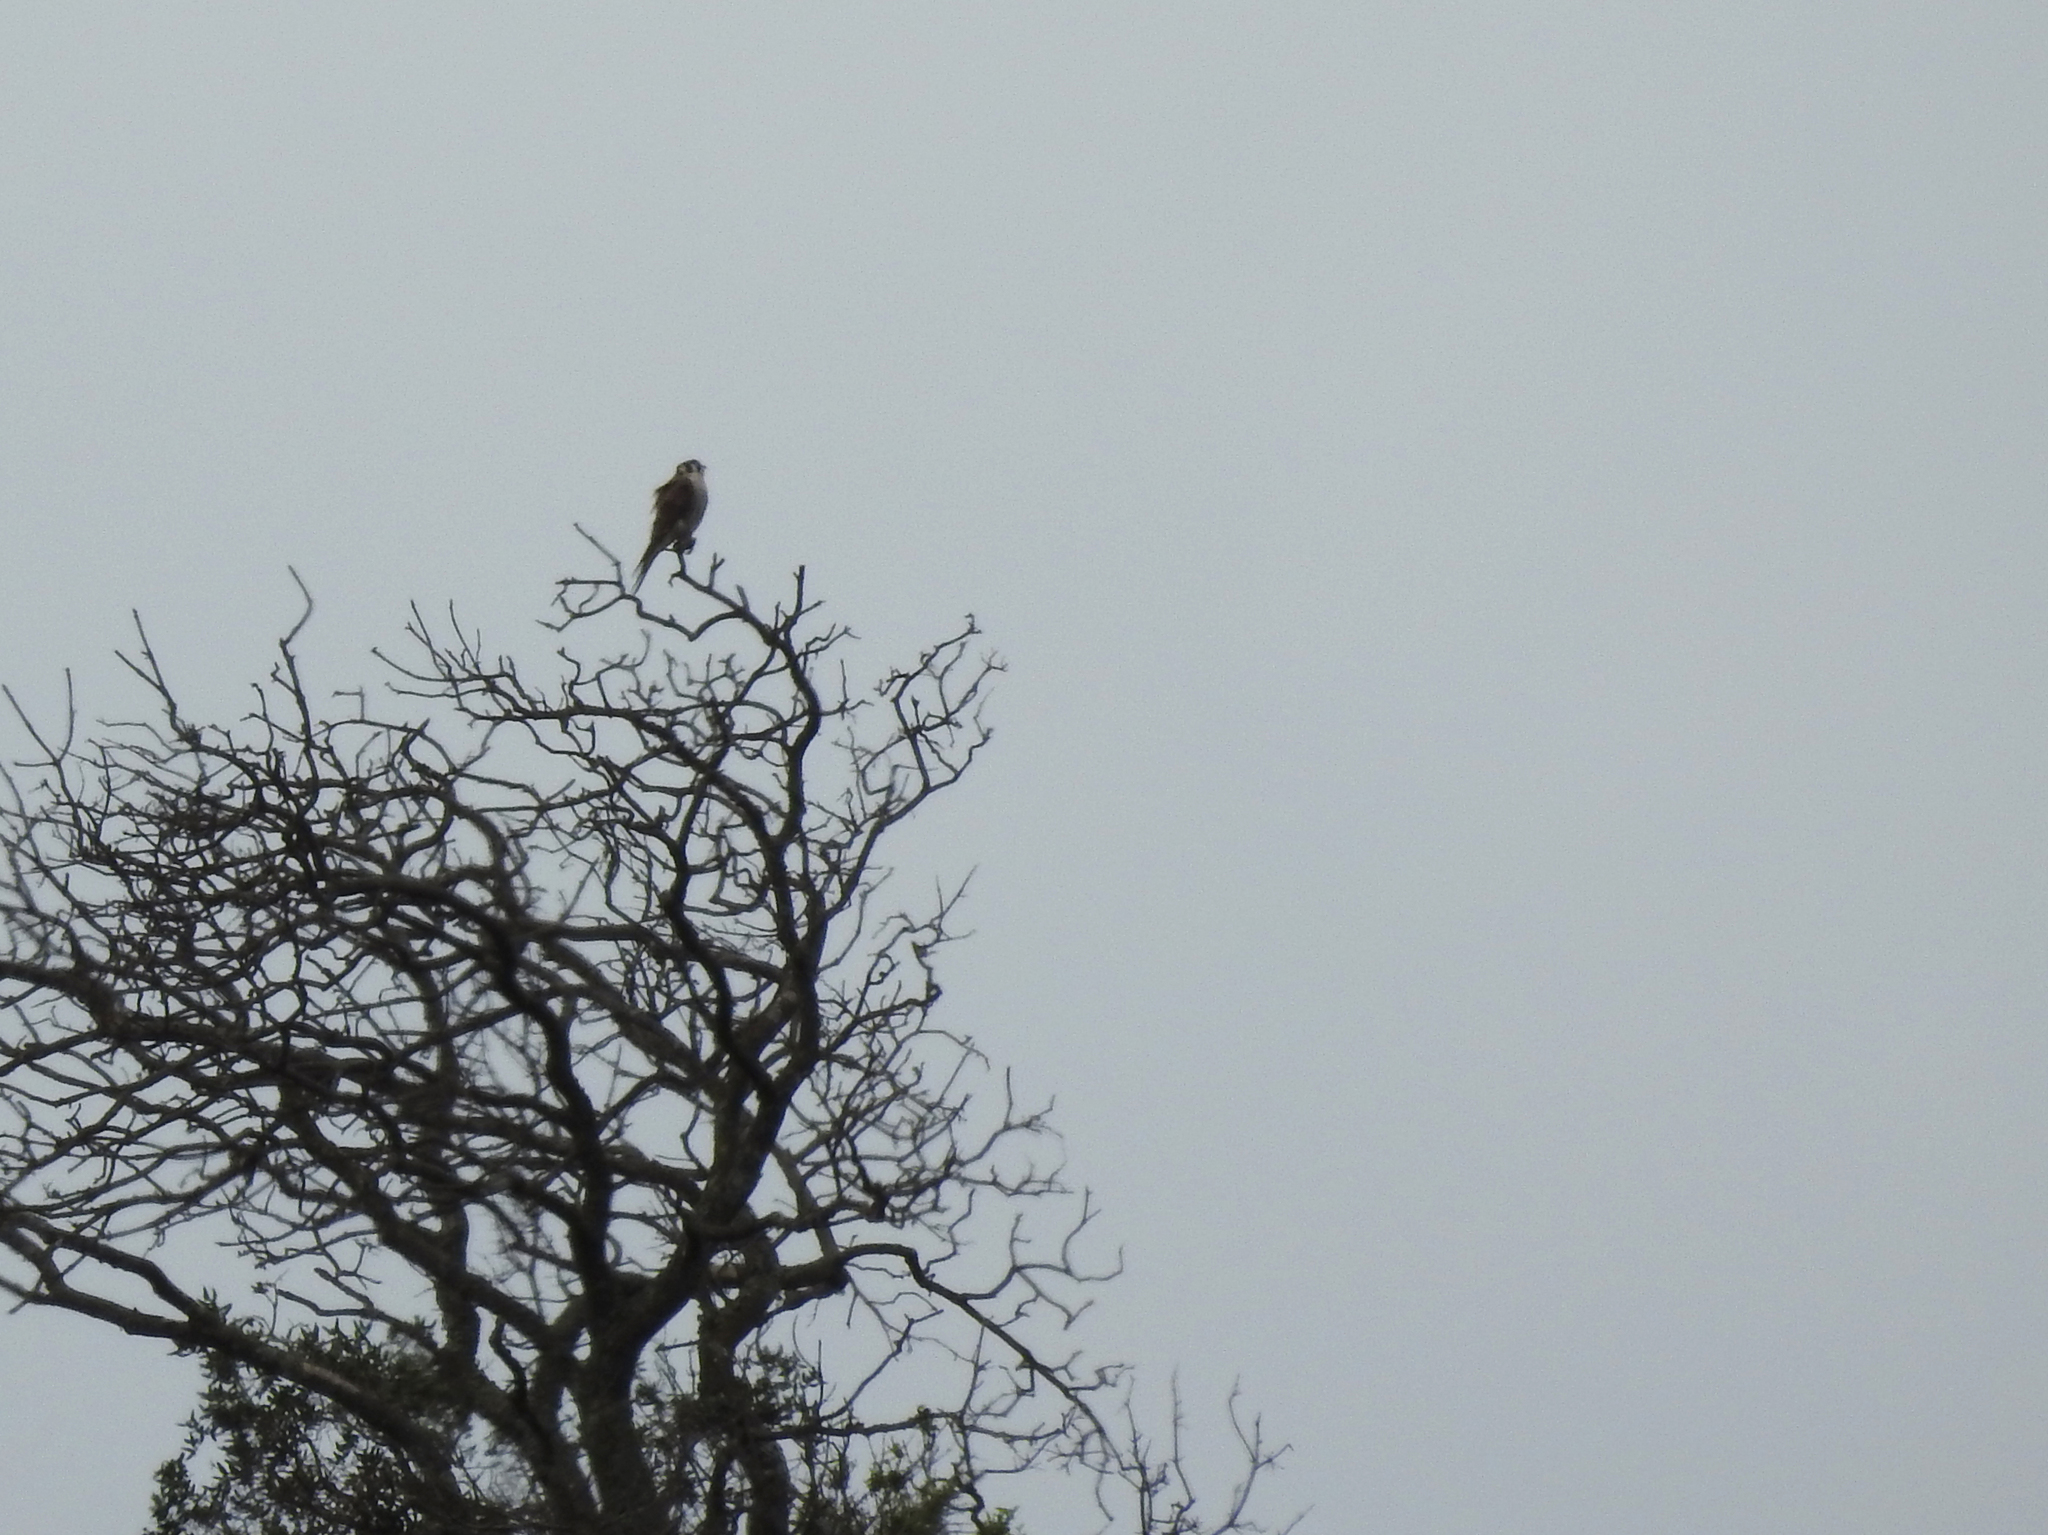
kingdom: Animalia
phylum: Chordata
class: Aves
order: Falconiformes
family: Falconidae
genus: Falco
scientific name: Falco sparverius
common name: American kestrel
